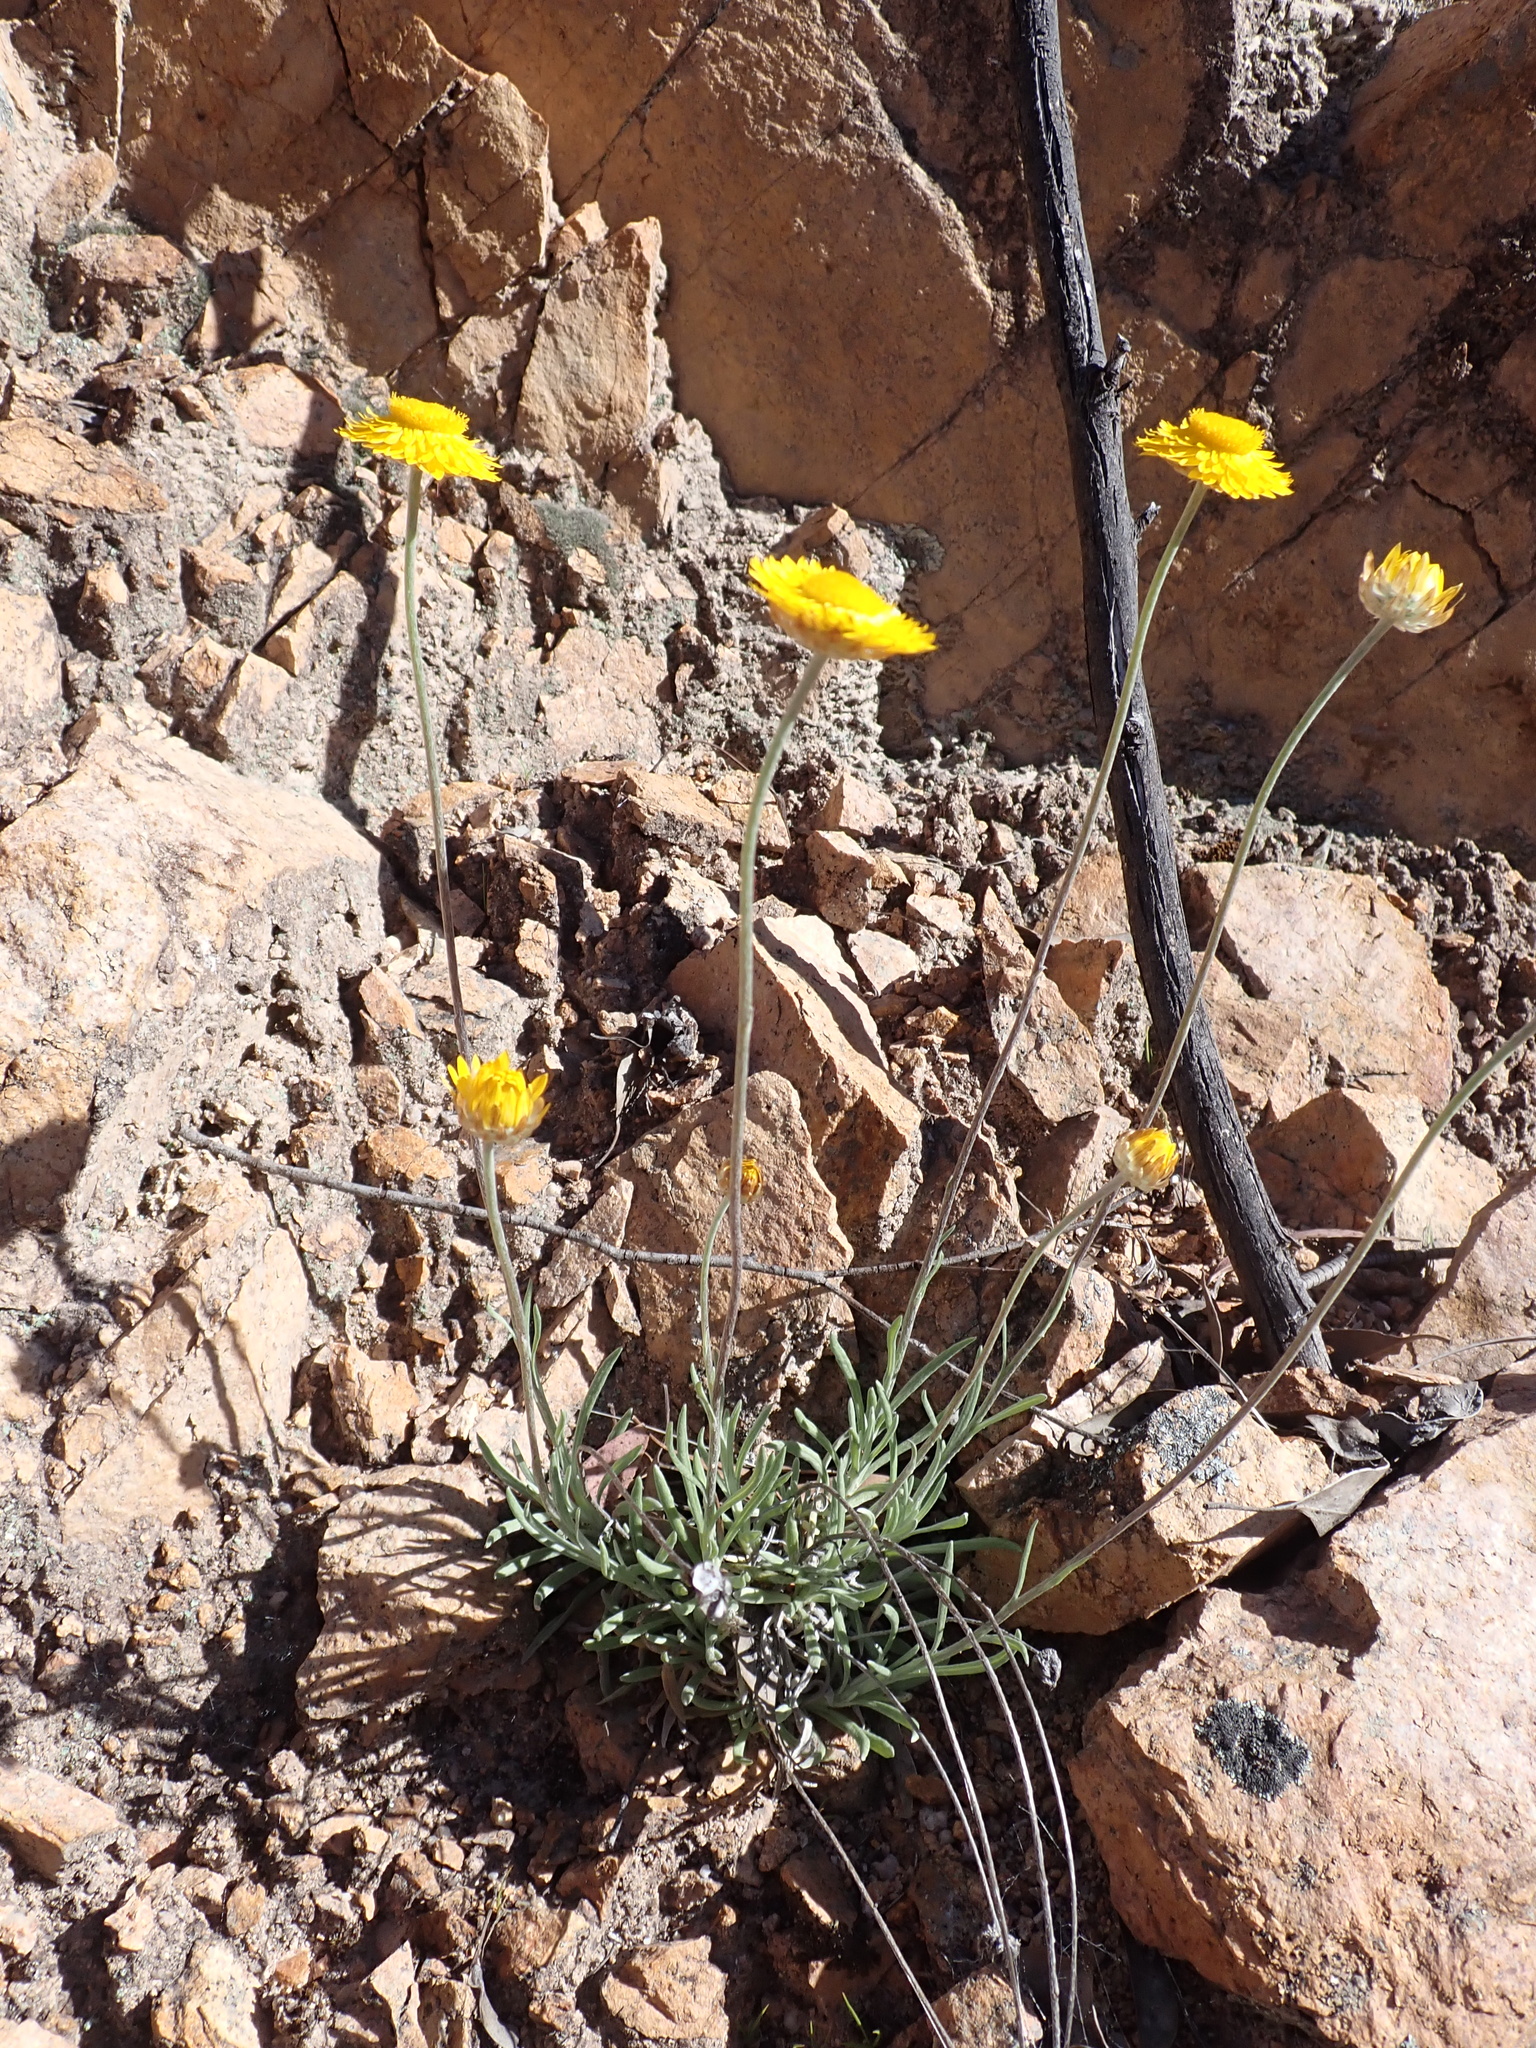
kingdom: Plantae
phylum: Tracheophyta
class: Magnoliopsida
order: Asterales
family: Asteraceae
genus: Leucochrysum
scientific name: Leucochrysum albicans
